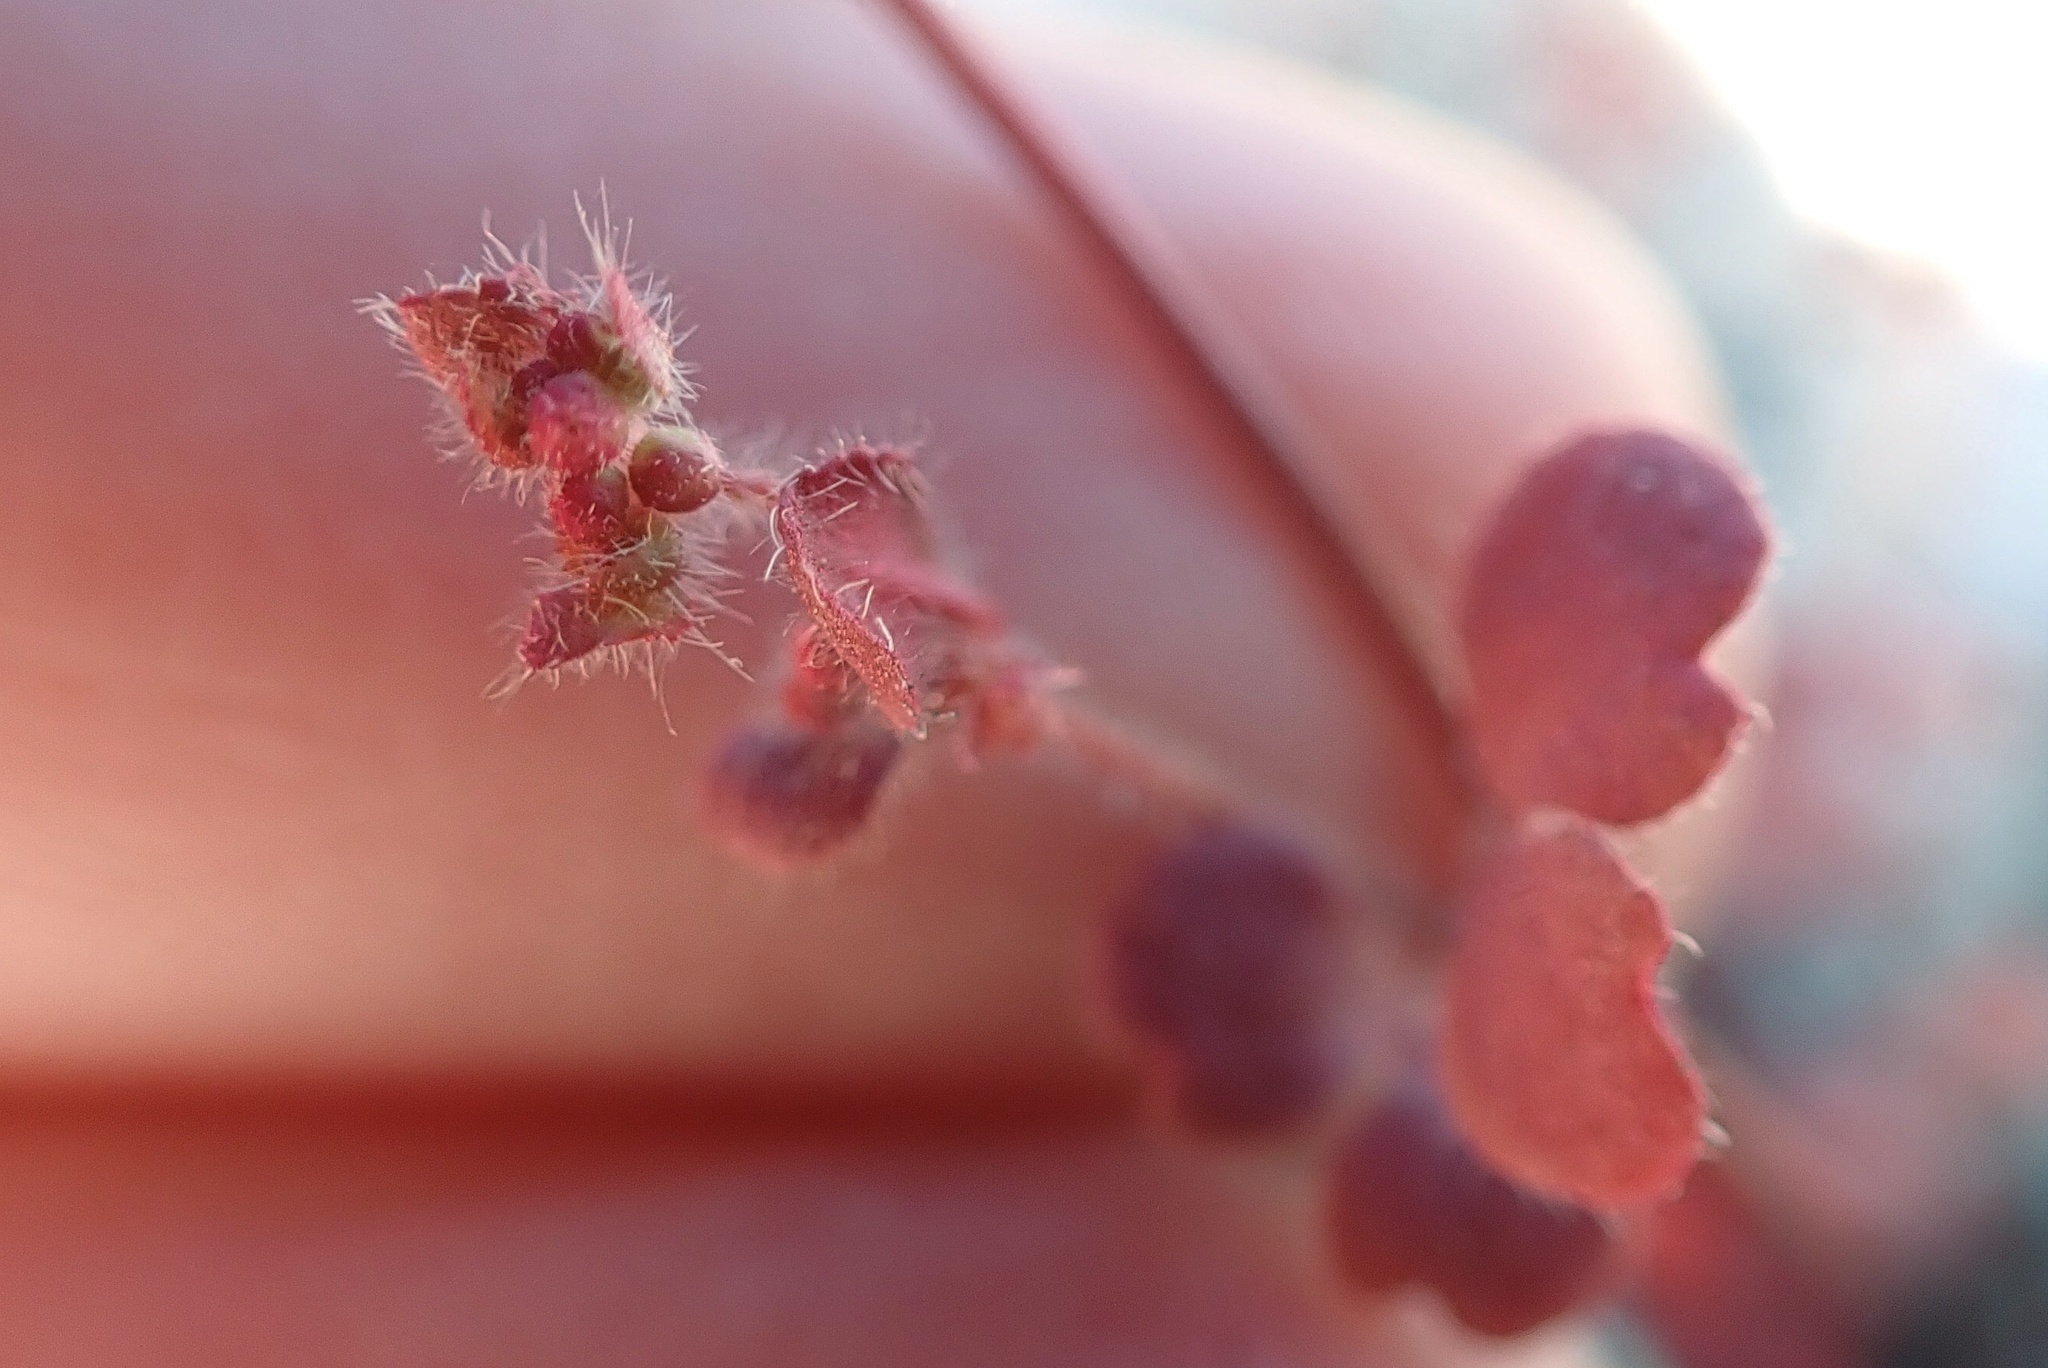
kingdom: Plantae
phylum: Tracheophyta
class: Magnoliopsida
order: Caryophyllales
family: Polygonaceae
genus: Pterostegia
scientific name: Pterostegia drymarioides
